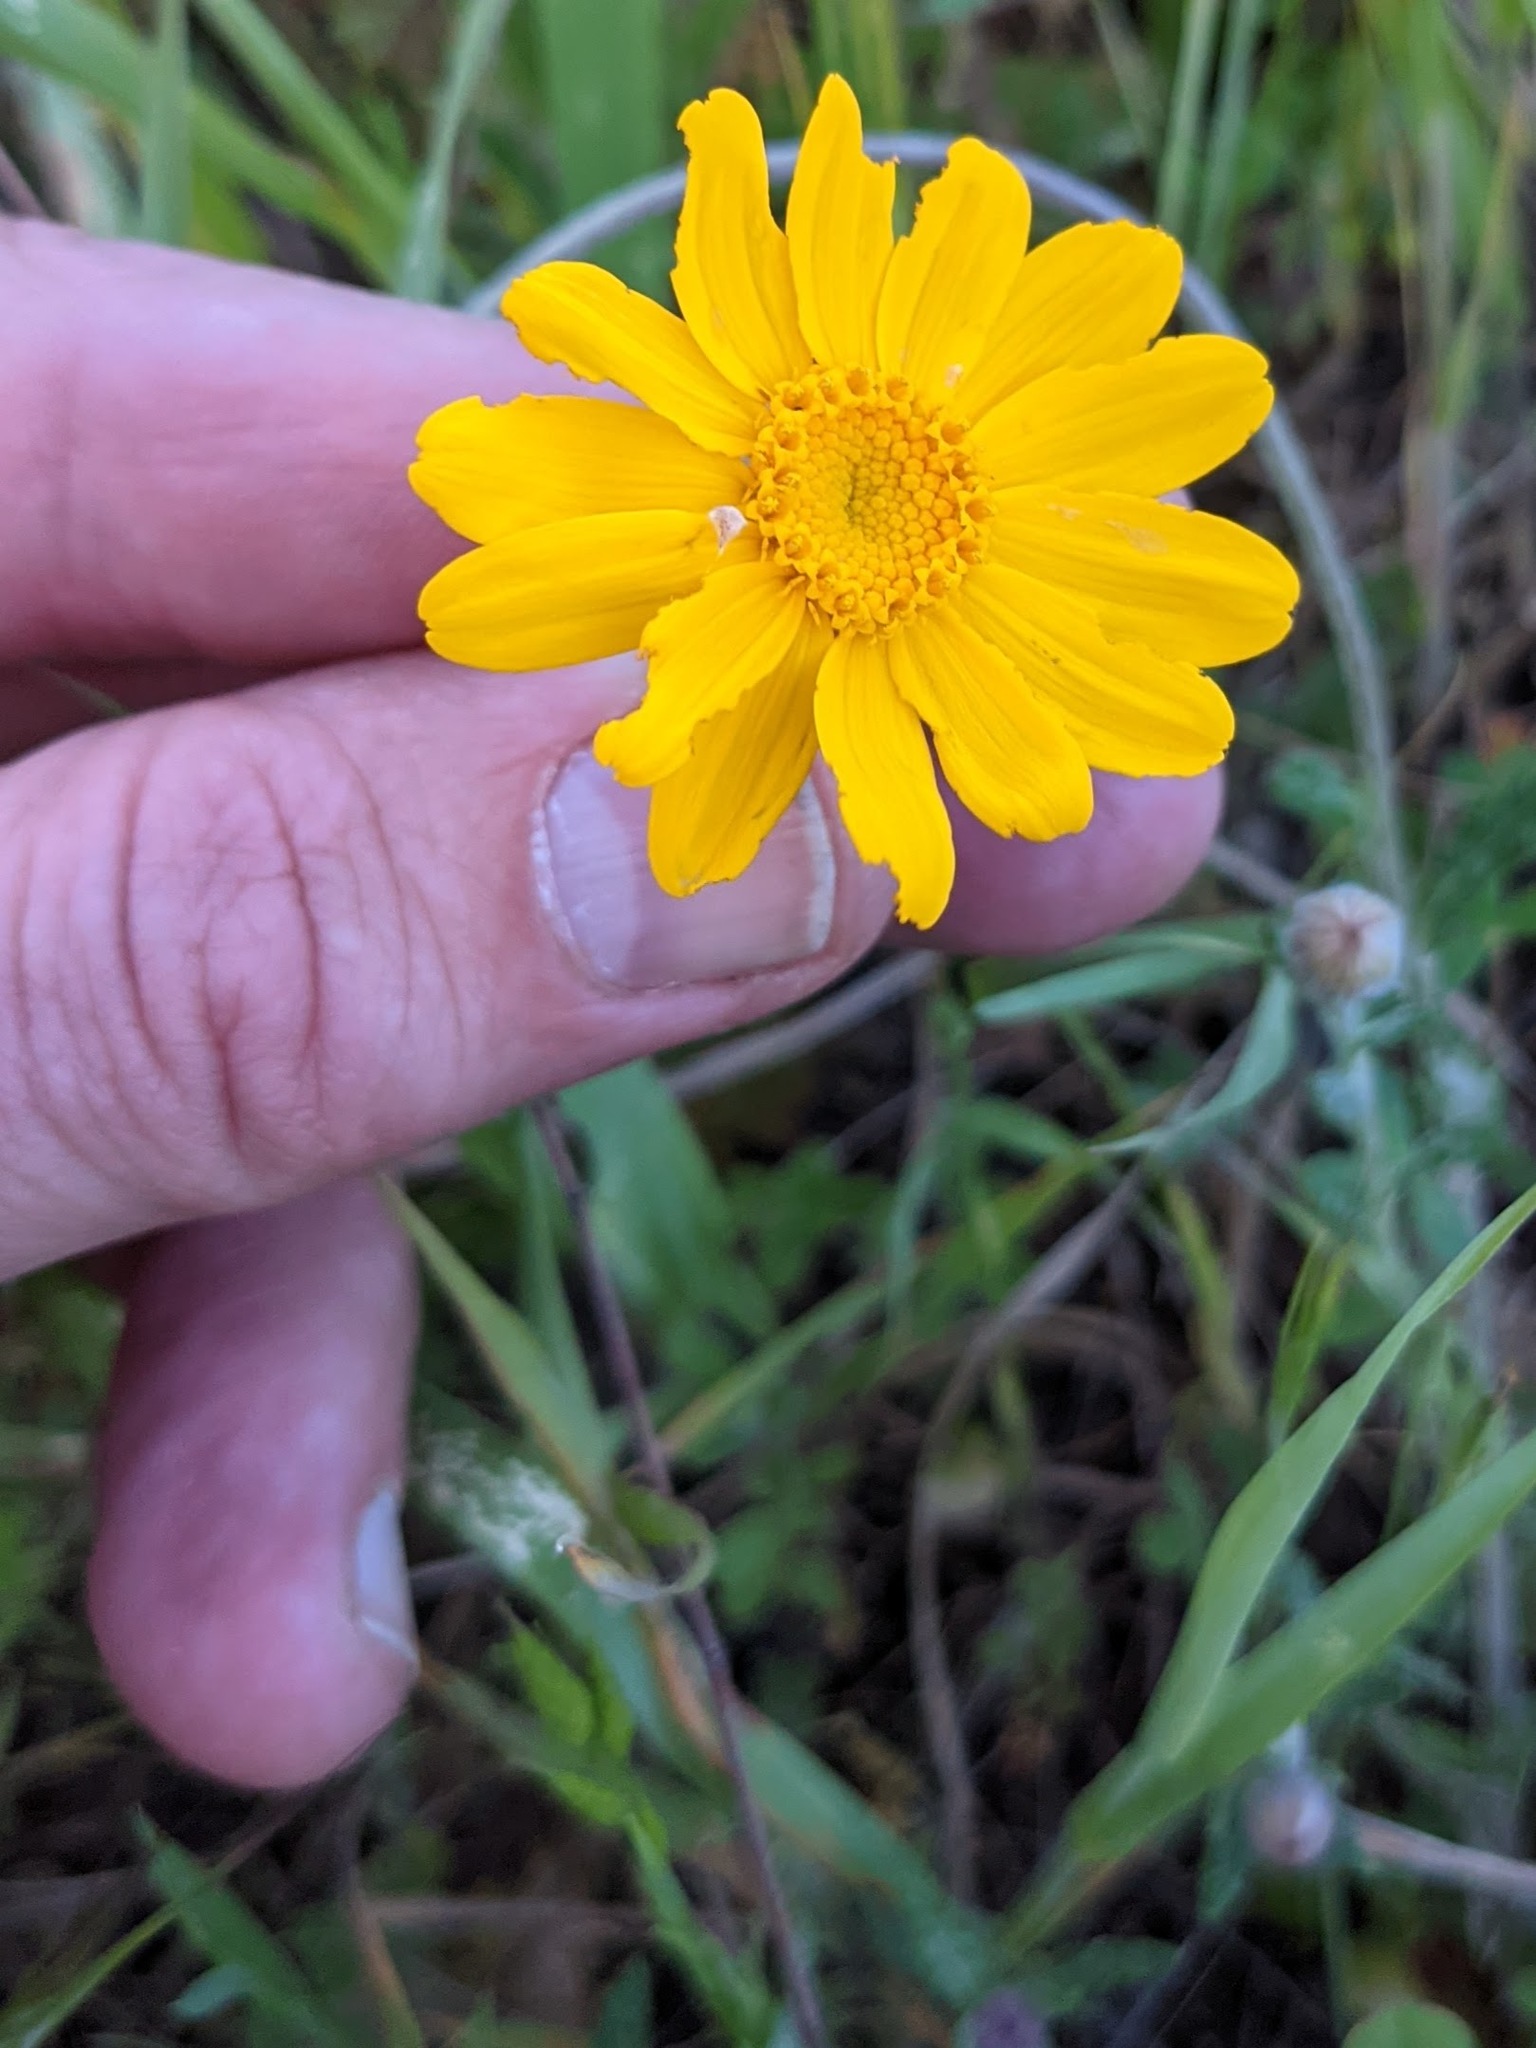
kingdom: Plantae
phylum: Tracheophyta
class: Magnoliopsida
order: Asterales
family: Asteraceae
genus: Eriophyllum
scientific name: Eriophyllum lanatum
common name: Common woolly-sunflower
